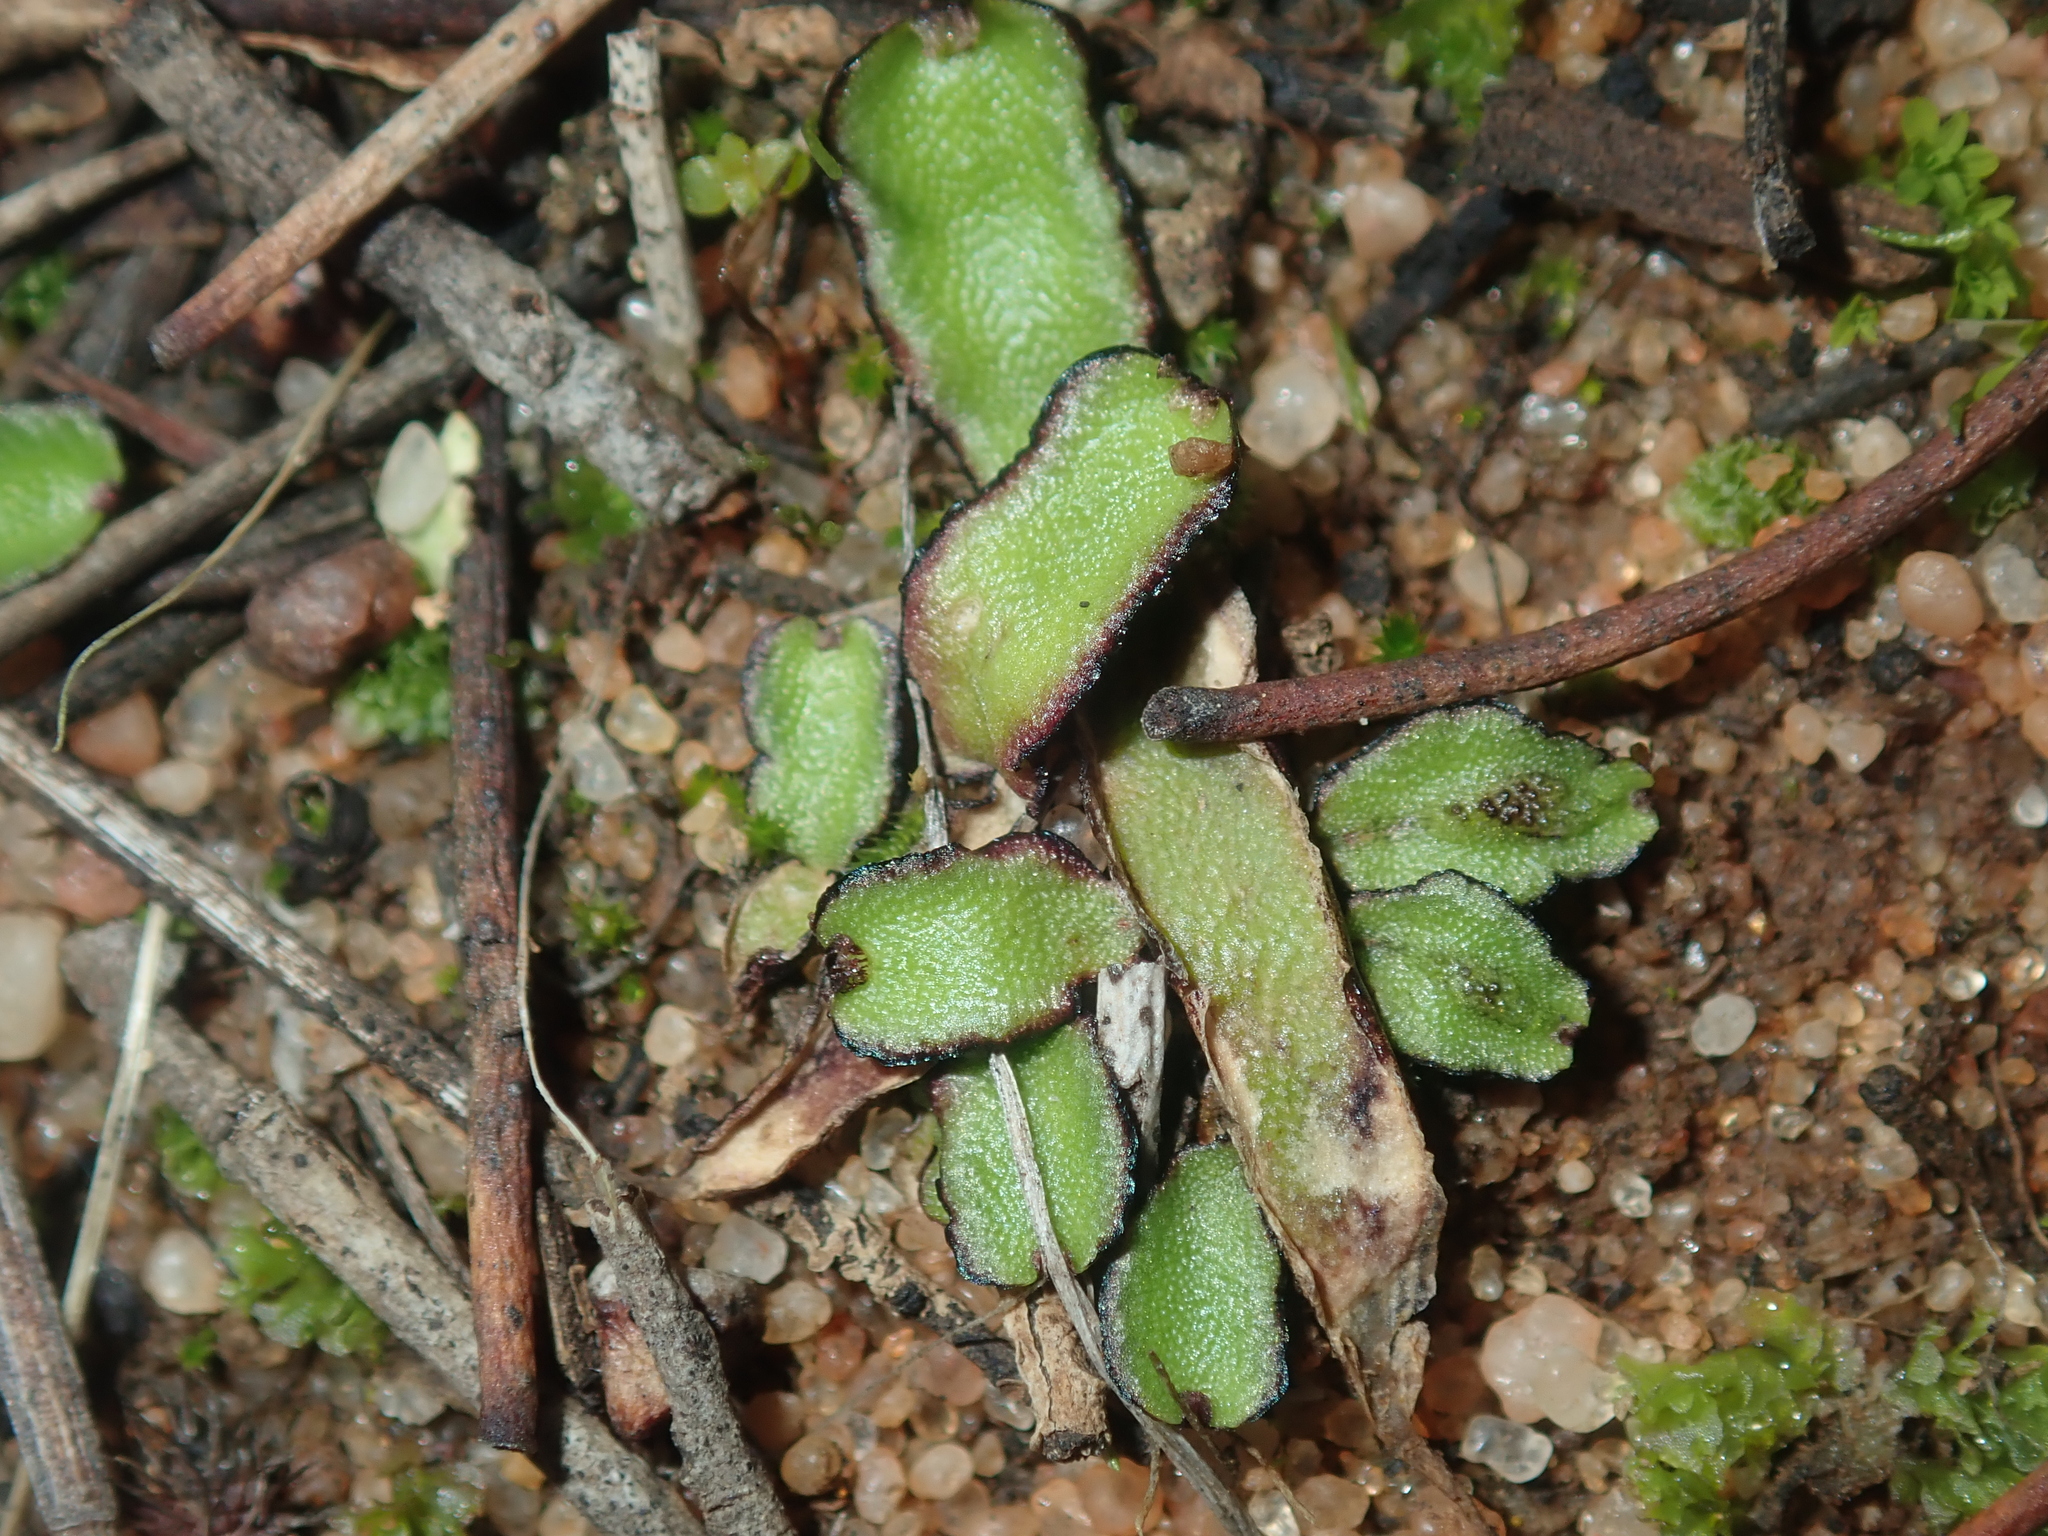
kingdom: Plantae
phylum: Marchantiophyta
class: Marchantiopsida
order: Marchantiales
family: Aytoniaceae
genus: Asterella
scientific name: Asterella drummondii
